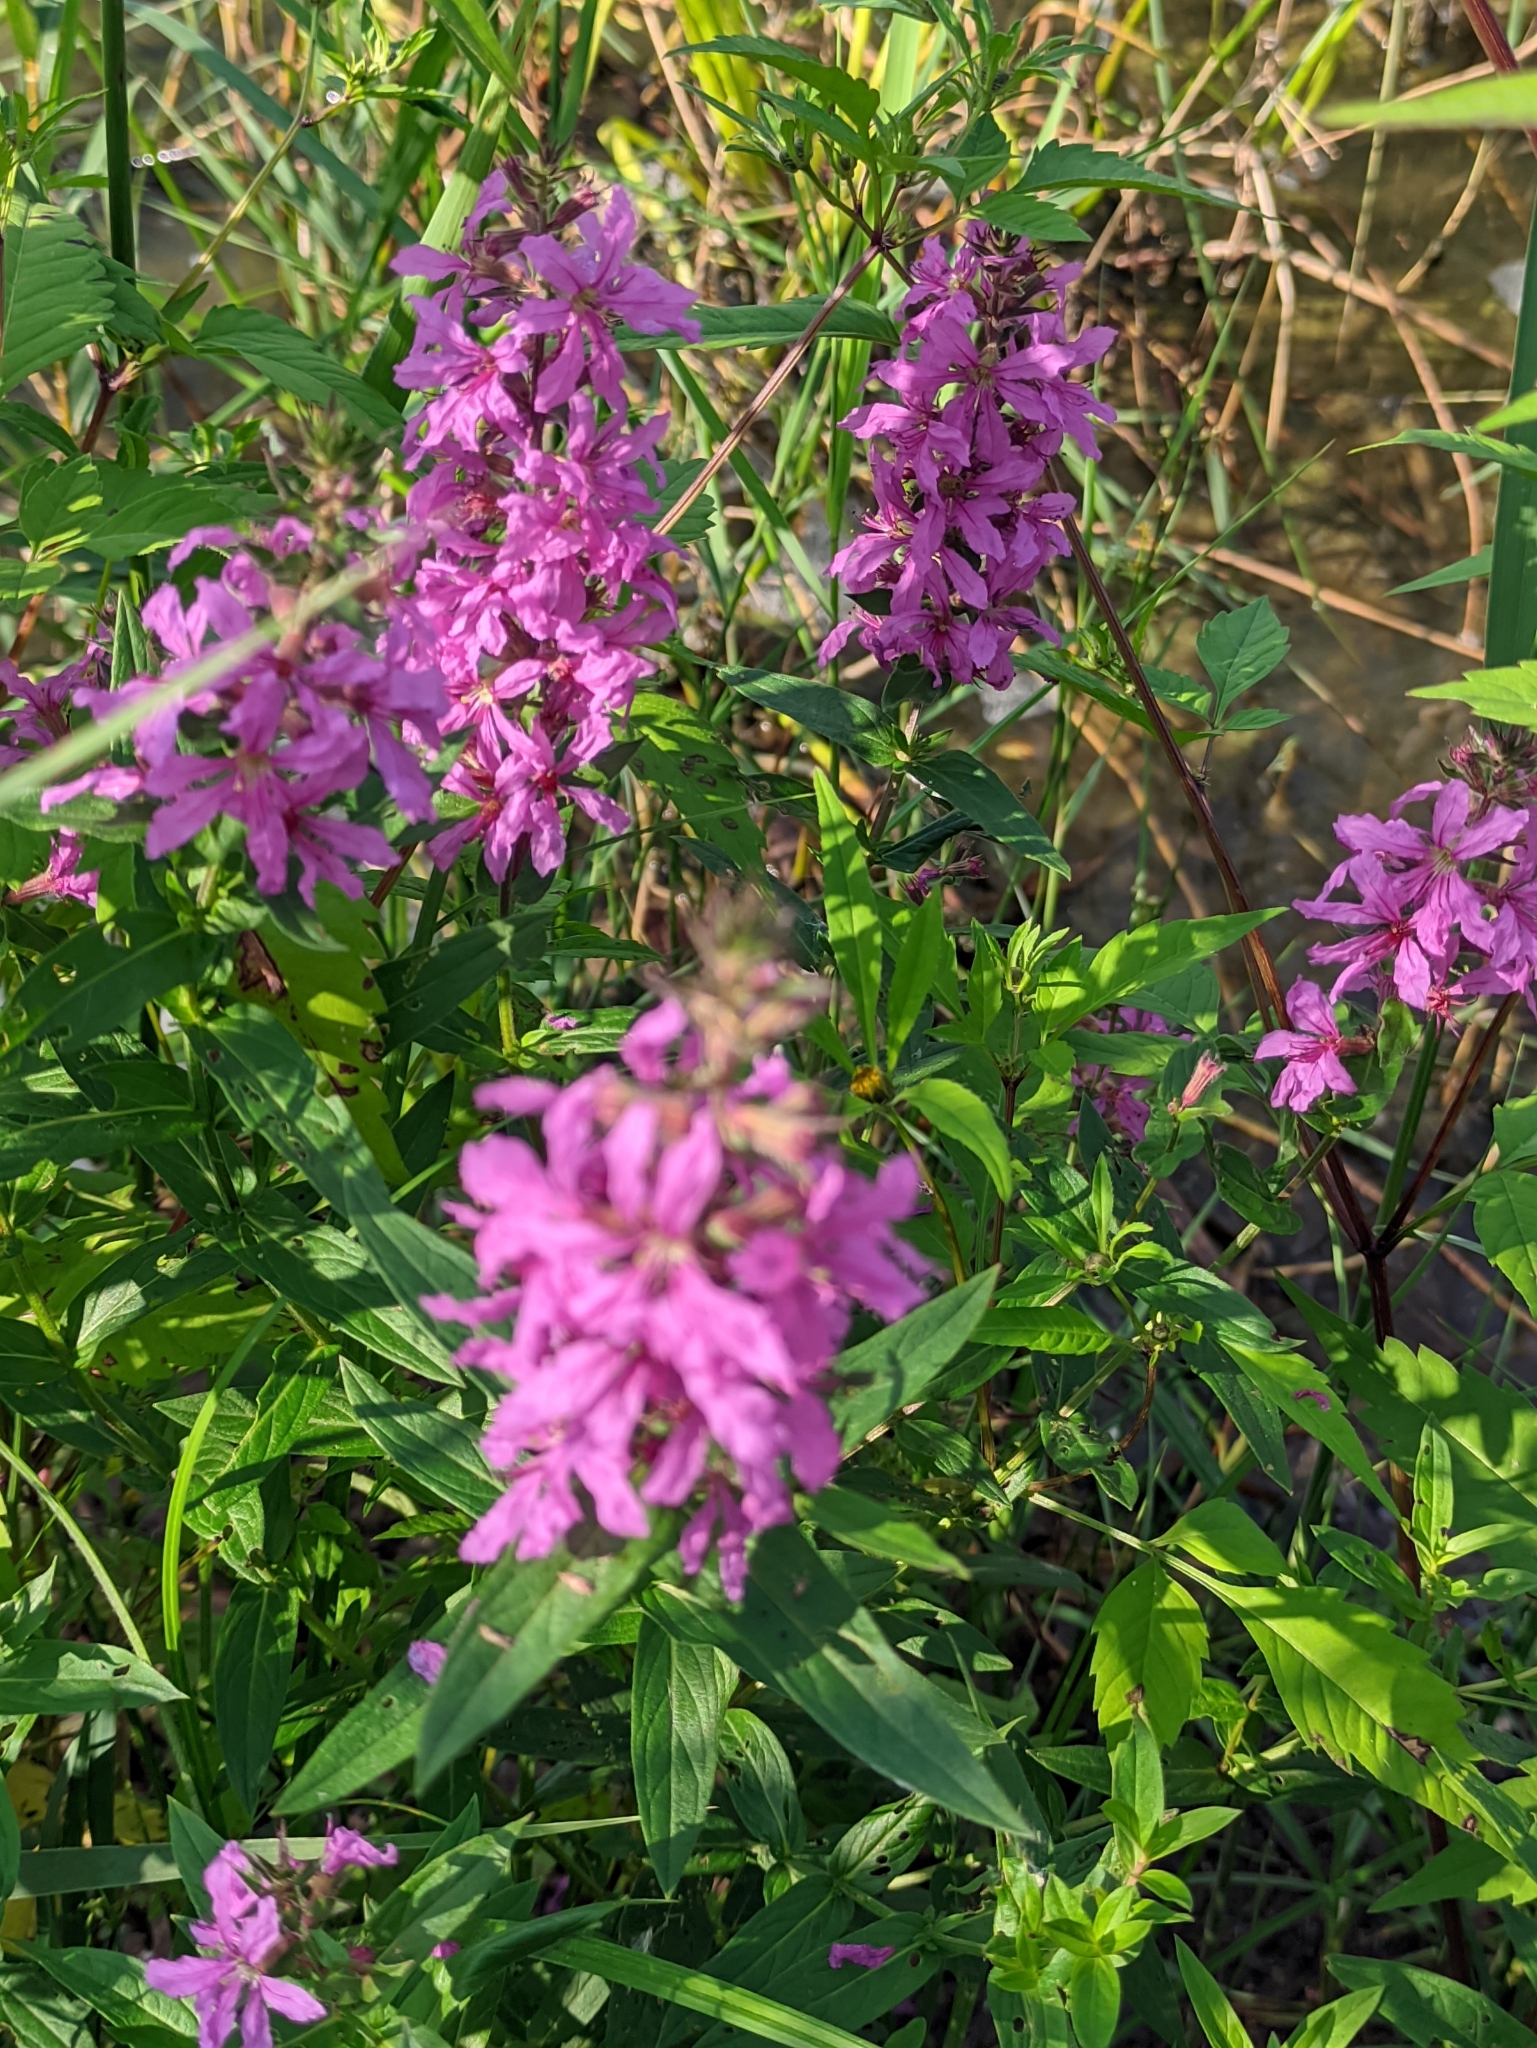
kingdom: Plantae
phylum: Tracheophyta
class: Magnoliopsida
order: Myrtales
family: Lythraceae
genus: Lythrum
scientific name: Lythrum salicaria
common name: Purple loosestrife
